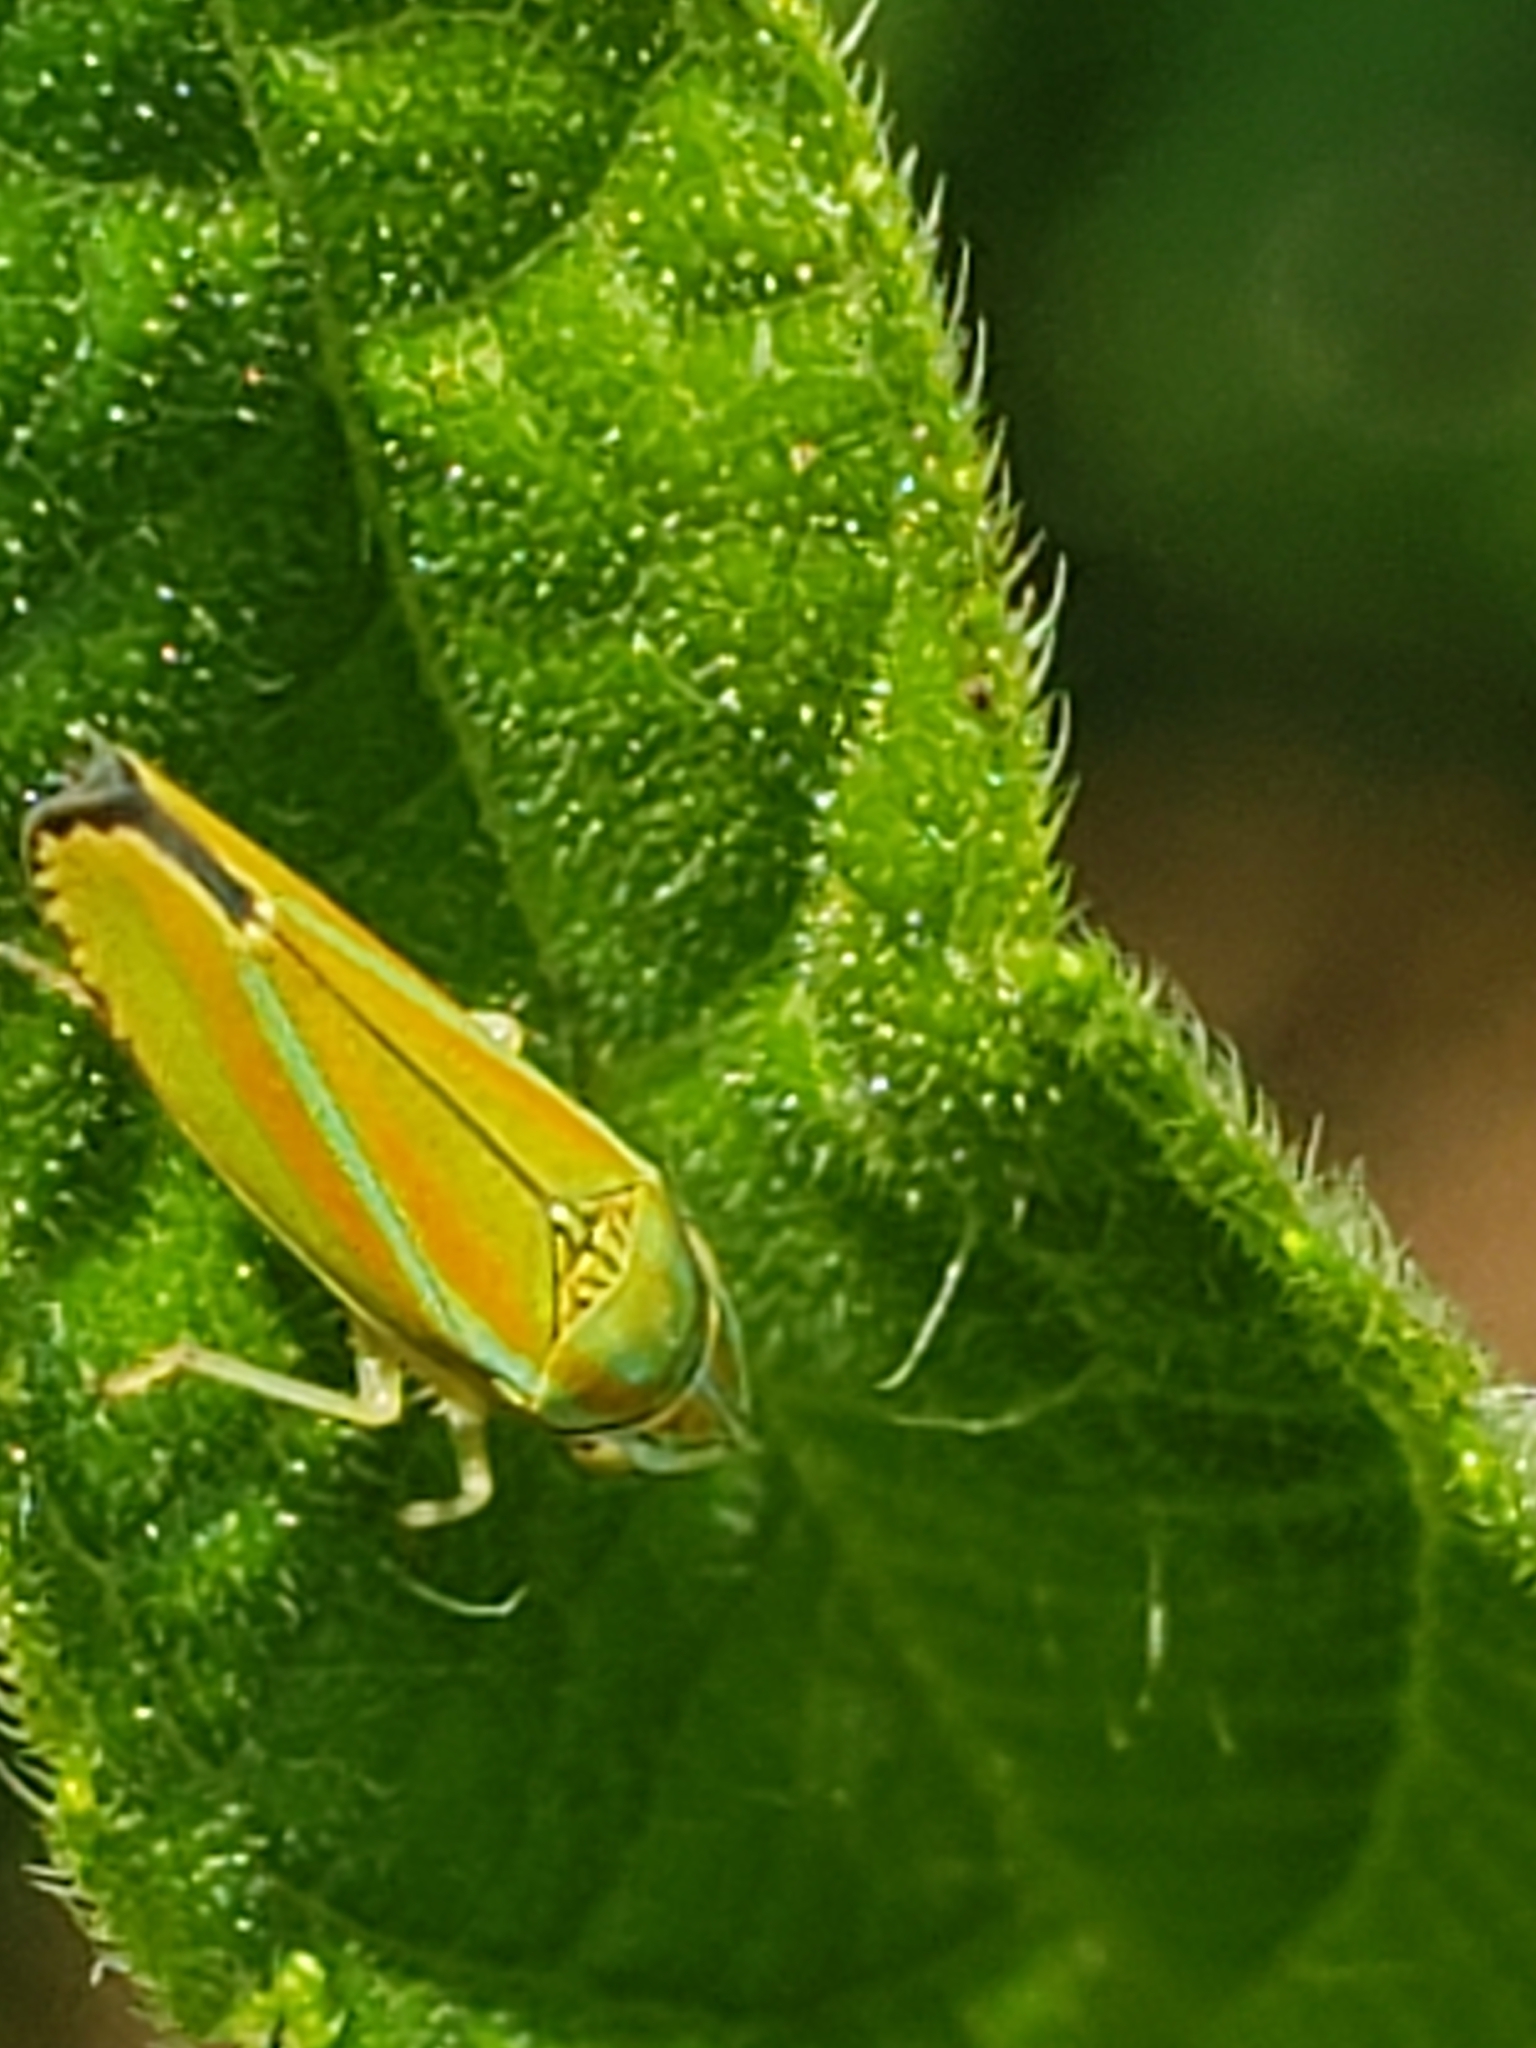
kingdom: Animalia
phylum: Arthropoda
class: Insecta
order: Hemiptera
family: Cicadellidae
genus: Graphocephala
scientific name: Graphocephala versuta
